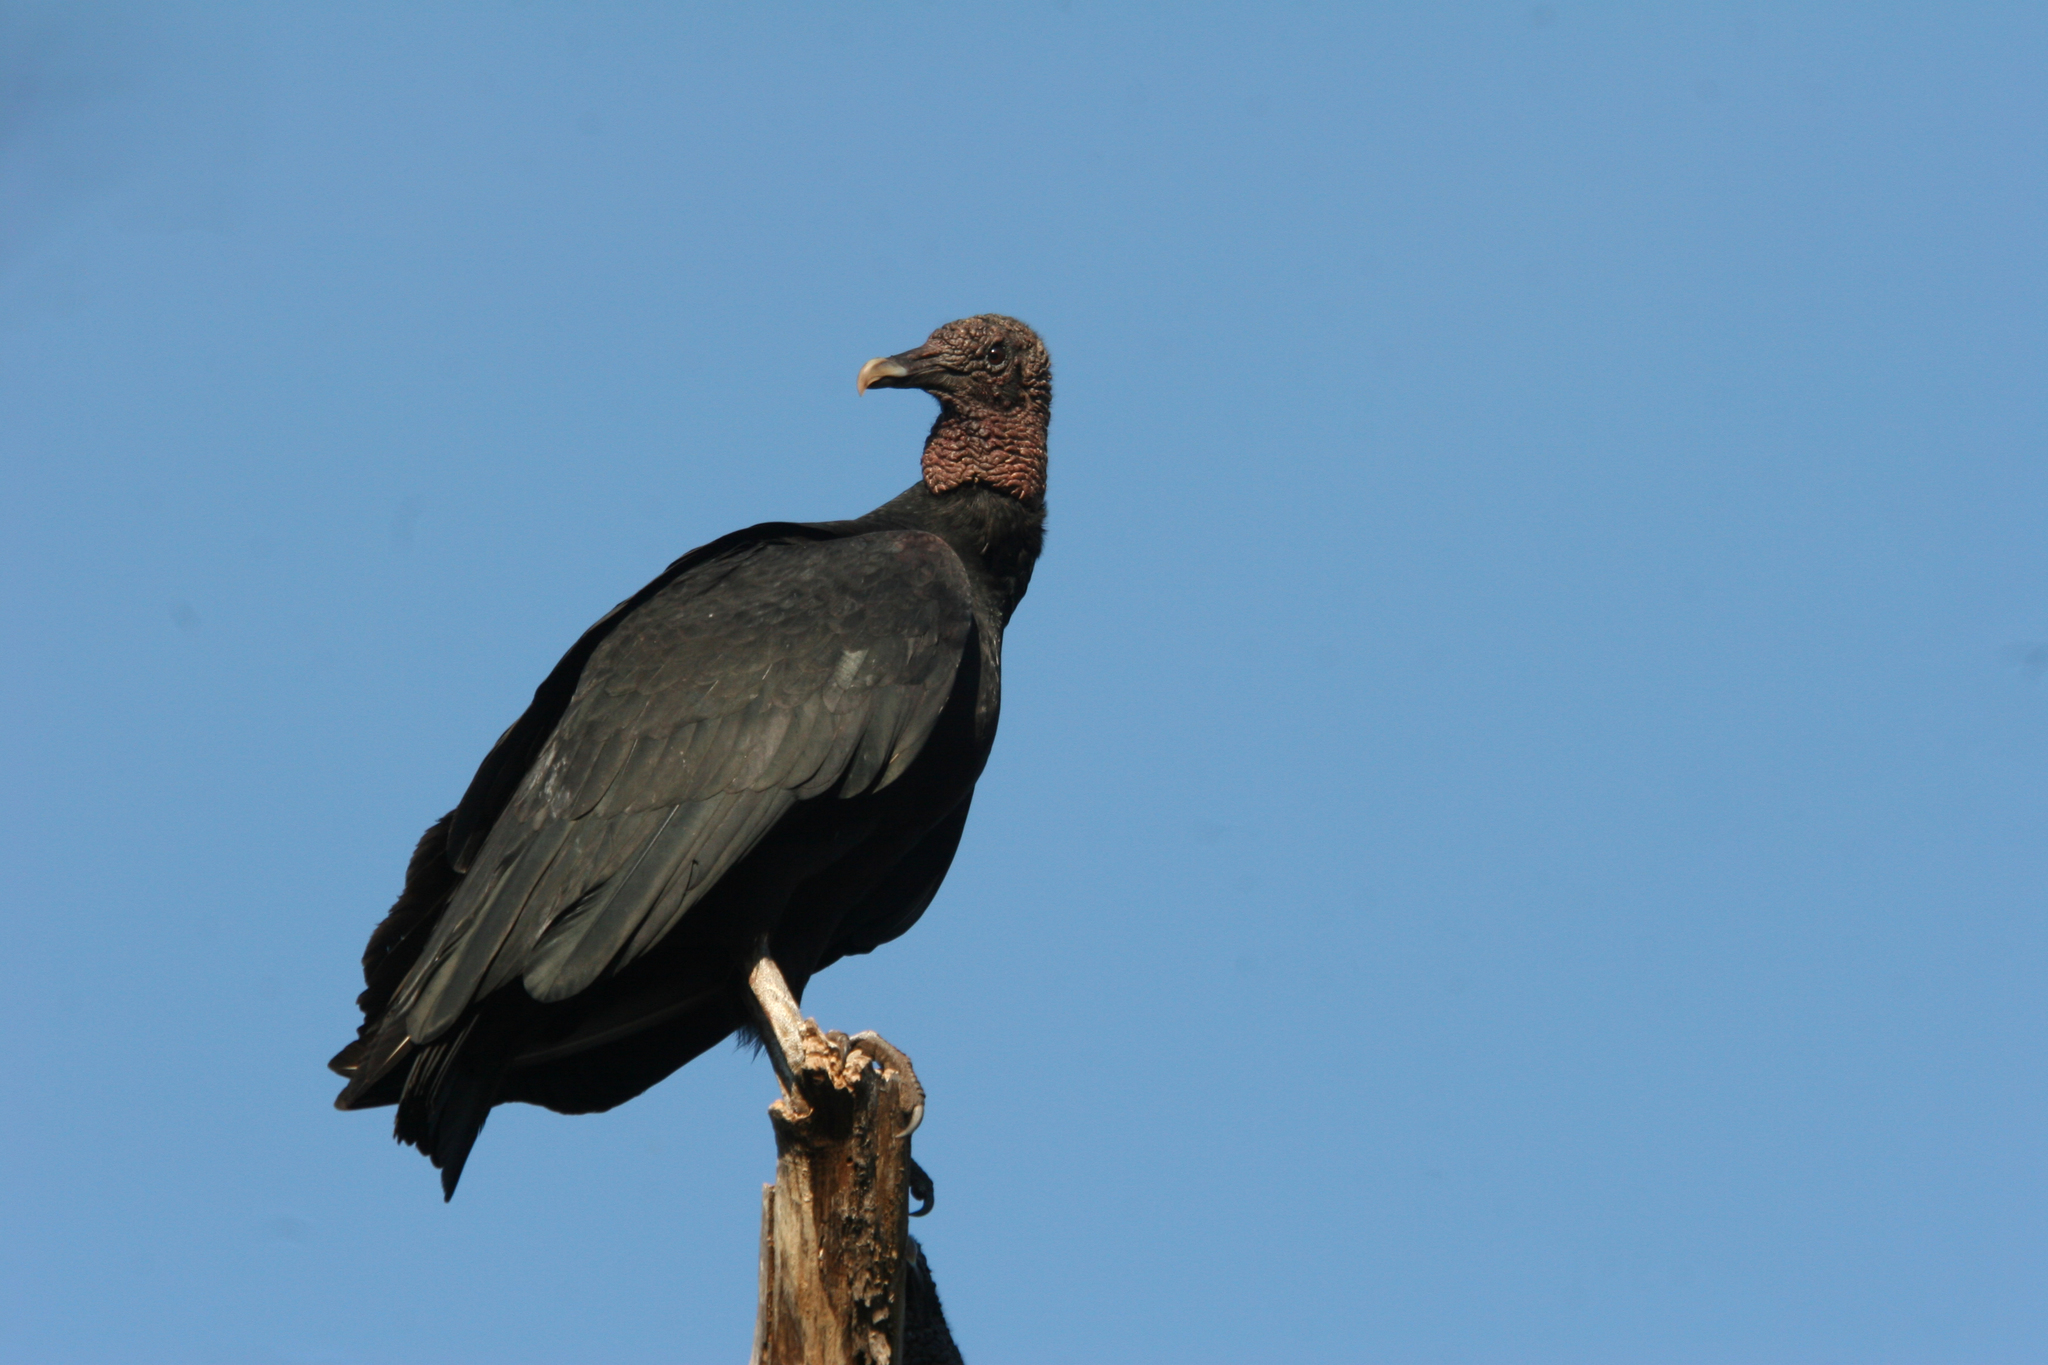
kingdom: Animalia
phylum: Chordata
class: Aves
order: Accipitriformes
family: Cathartidae
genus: Coragyps
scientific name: Coragyps atratus
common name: Black vulture
